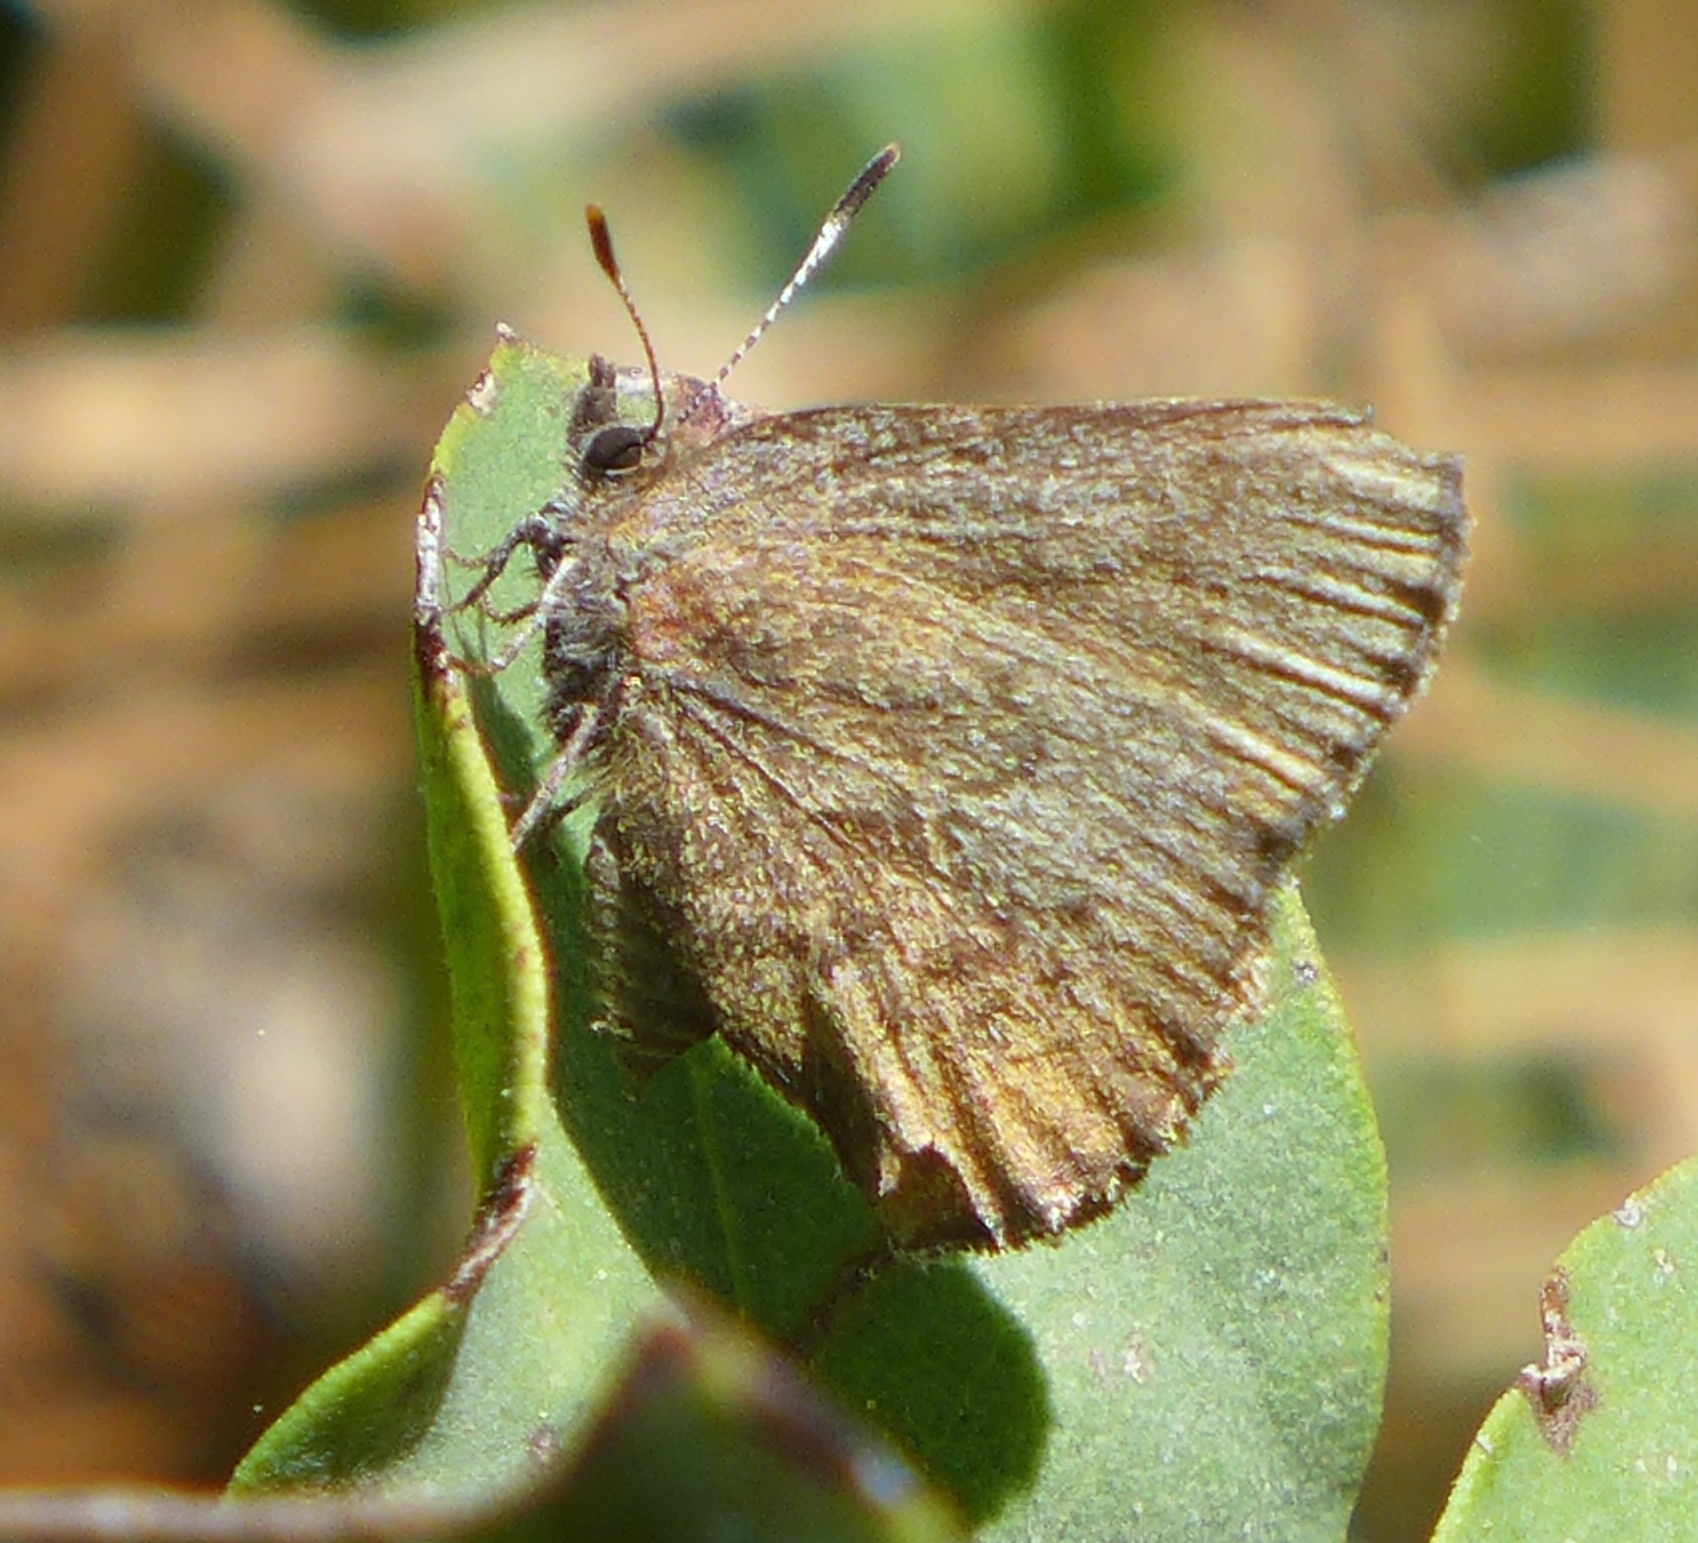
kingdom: Animalia
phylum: Arthropoda
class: Insecta
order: Lepidoptera
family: Lycaenidae
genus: Incisalia
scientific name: Incisalia irioides
